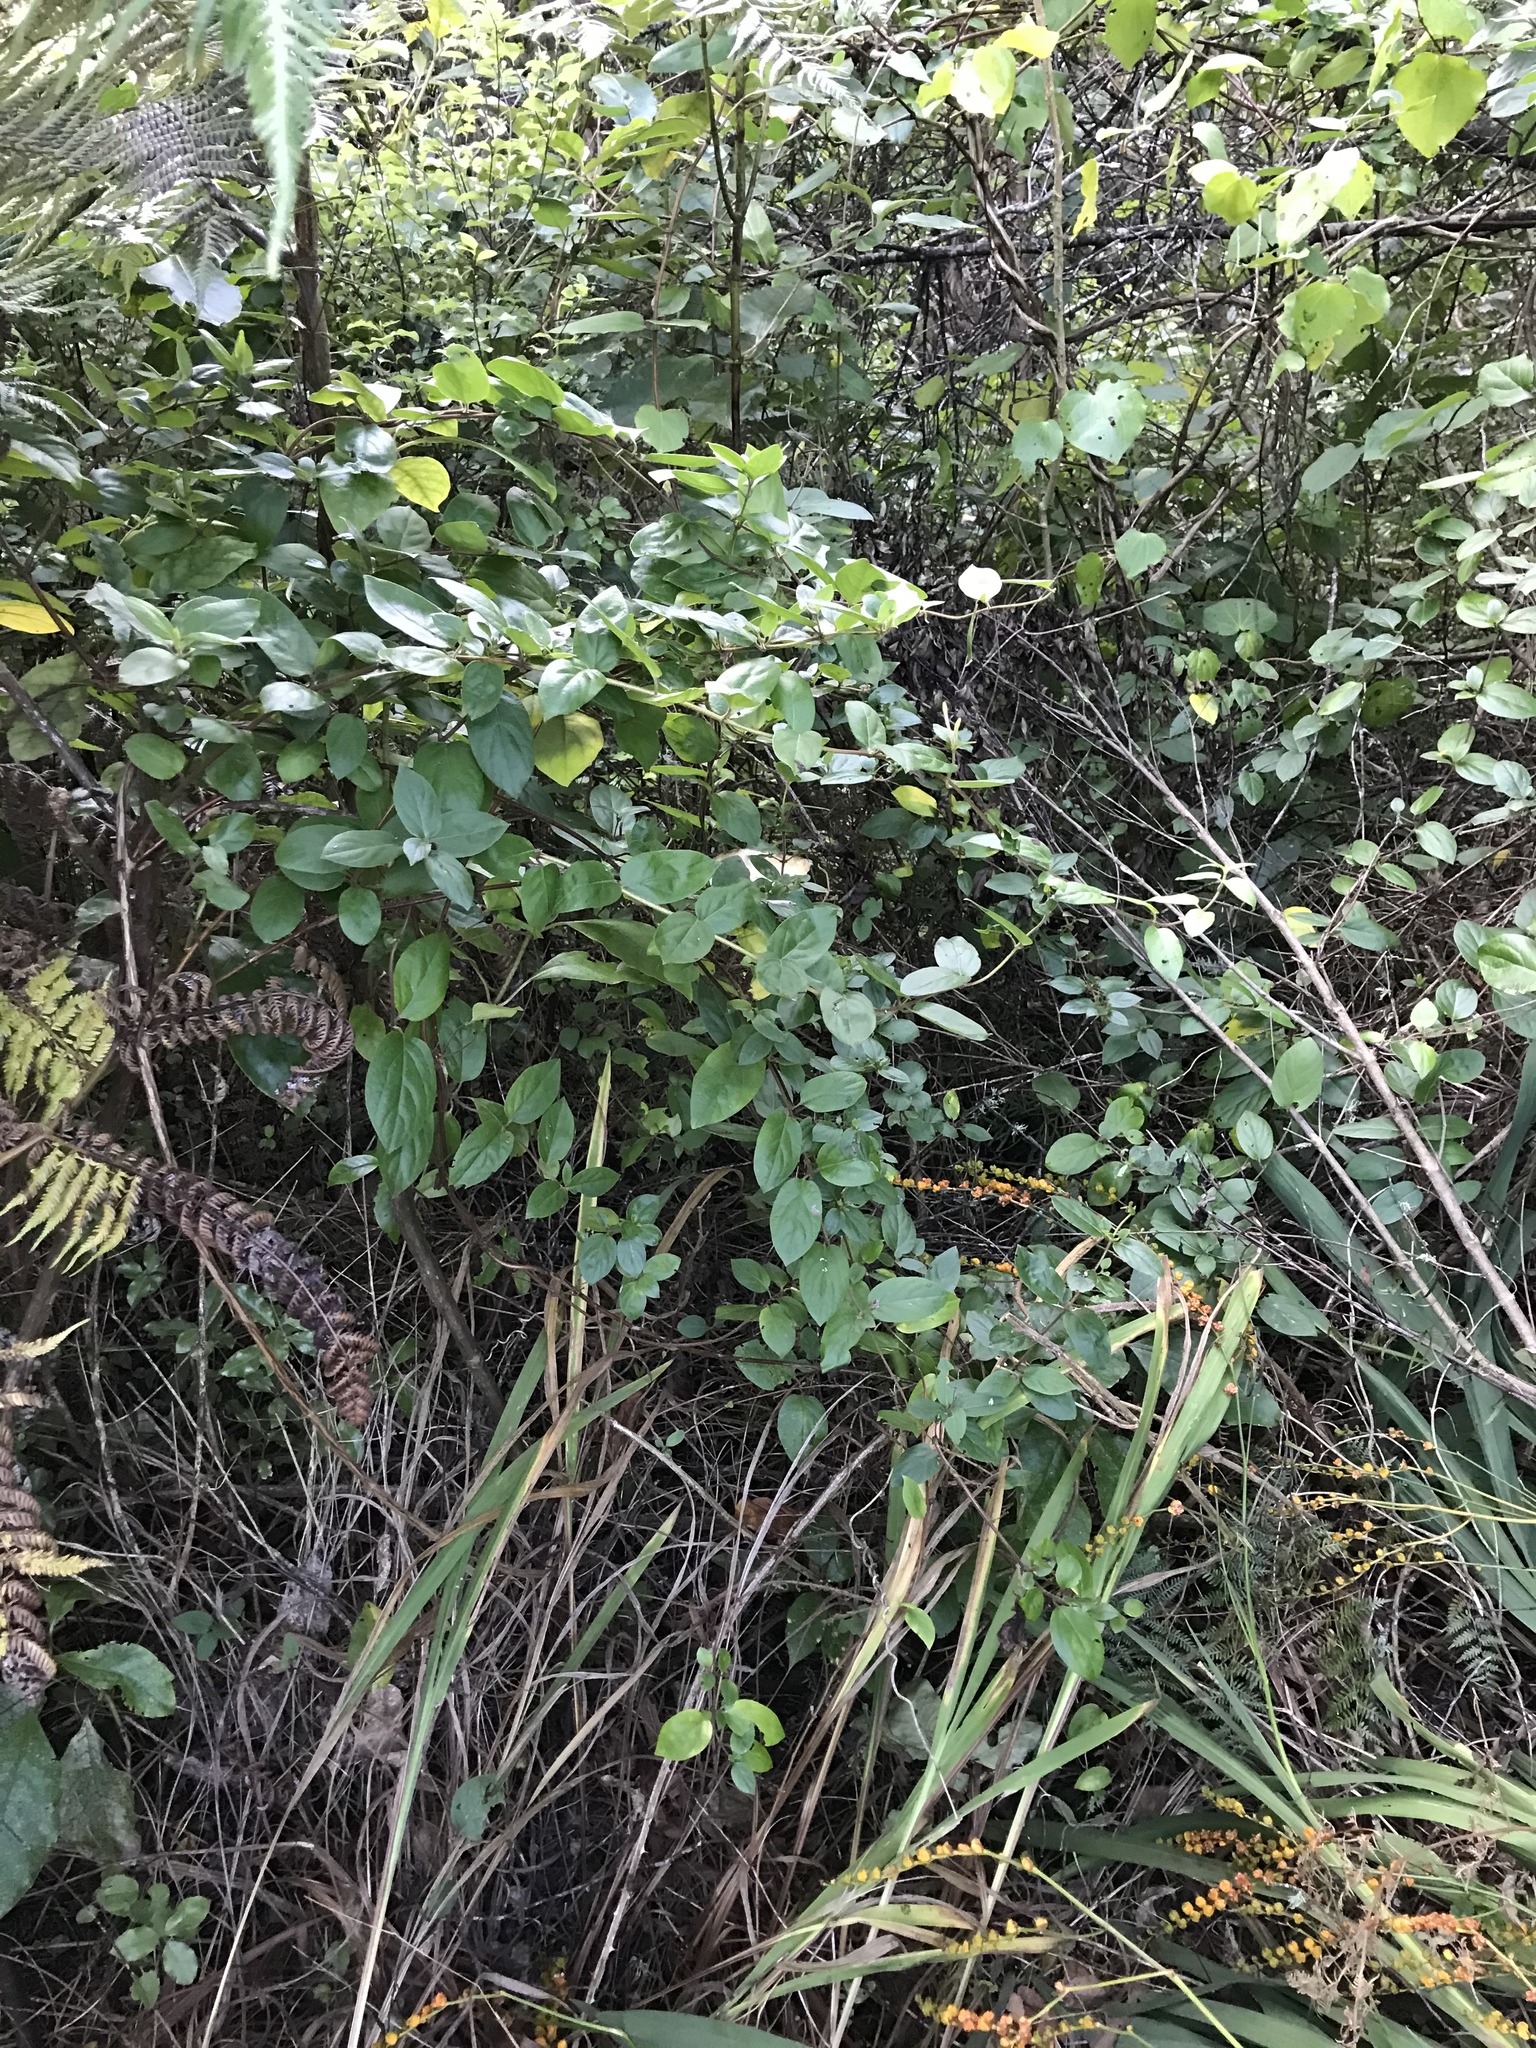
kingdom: Plantae
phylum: Tracheophyta
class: Magnoliopsida
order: Dipsacales
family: Caprifoliaceae
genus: Lonicera
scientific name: Lonicera japonica
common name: Japanese honeysuckle
